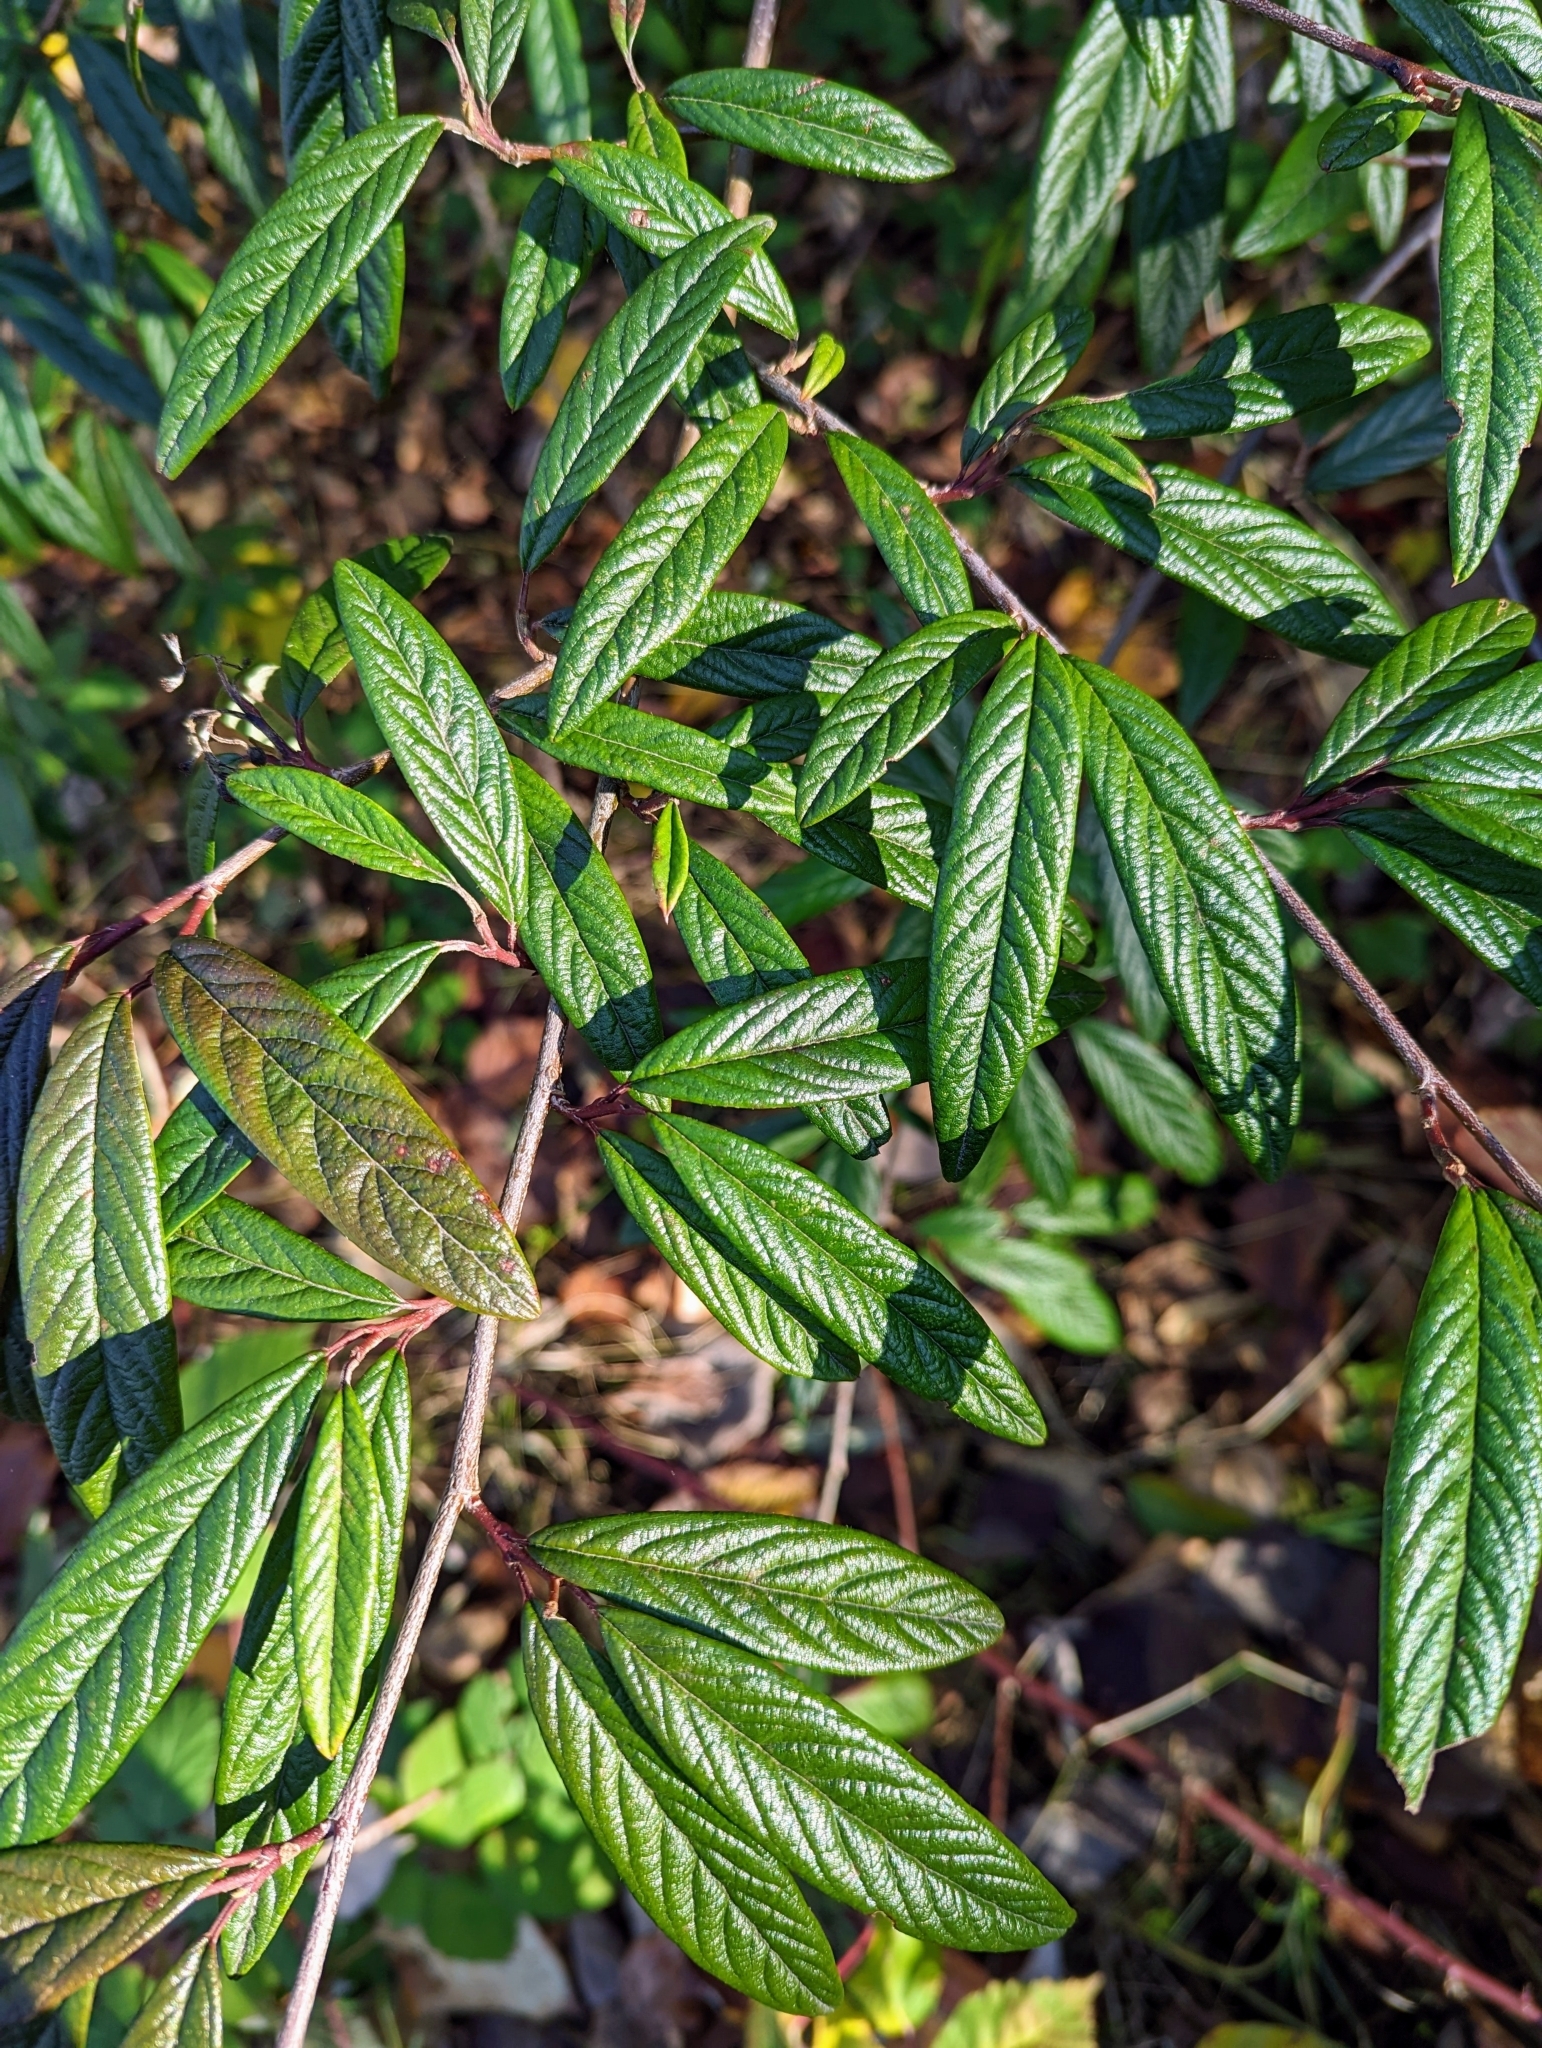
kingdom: Plantae
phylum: Tracheophyta
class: Magnoliopsida
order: Rosales
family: Rosaceae
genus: Cotoneaster
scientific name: Cotoneaster salicifolius
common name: Willow-leaved cotoneaster
